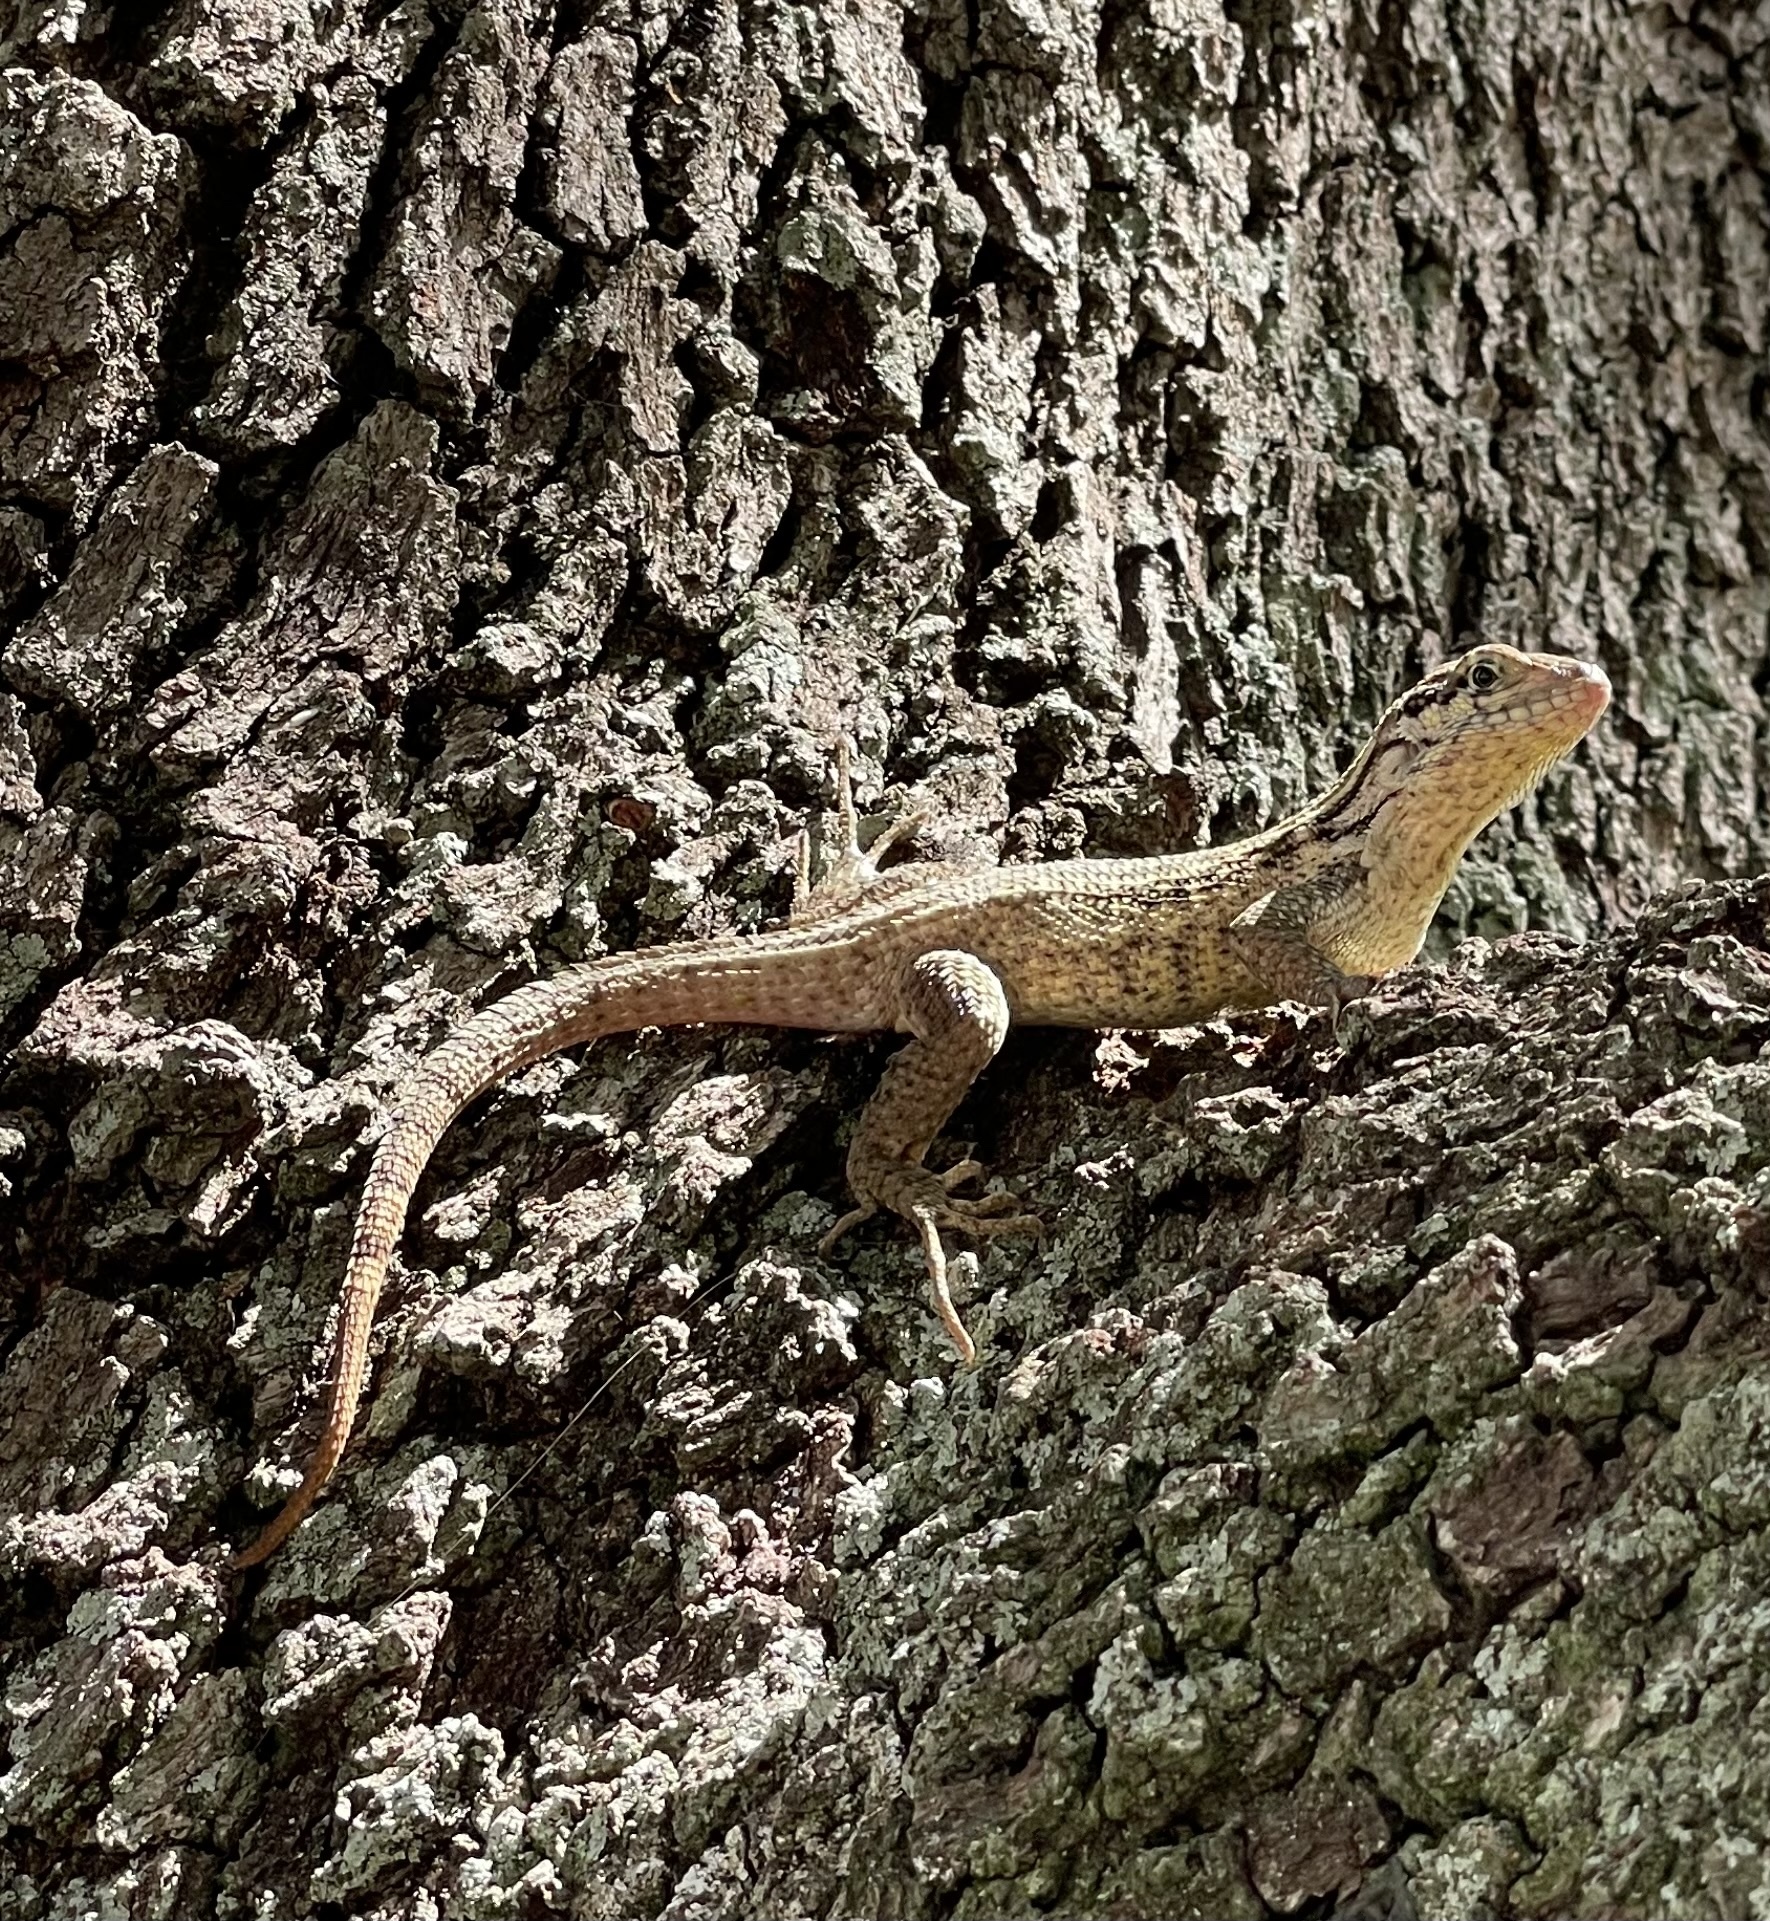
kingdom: Animalia
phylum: Chordata
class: Squamata
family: Leiocephalidae
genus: Leiocephalus
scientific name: Leiocephalus carinatus
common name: Northern curly-tailed lizard
